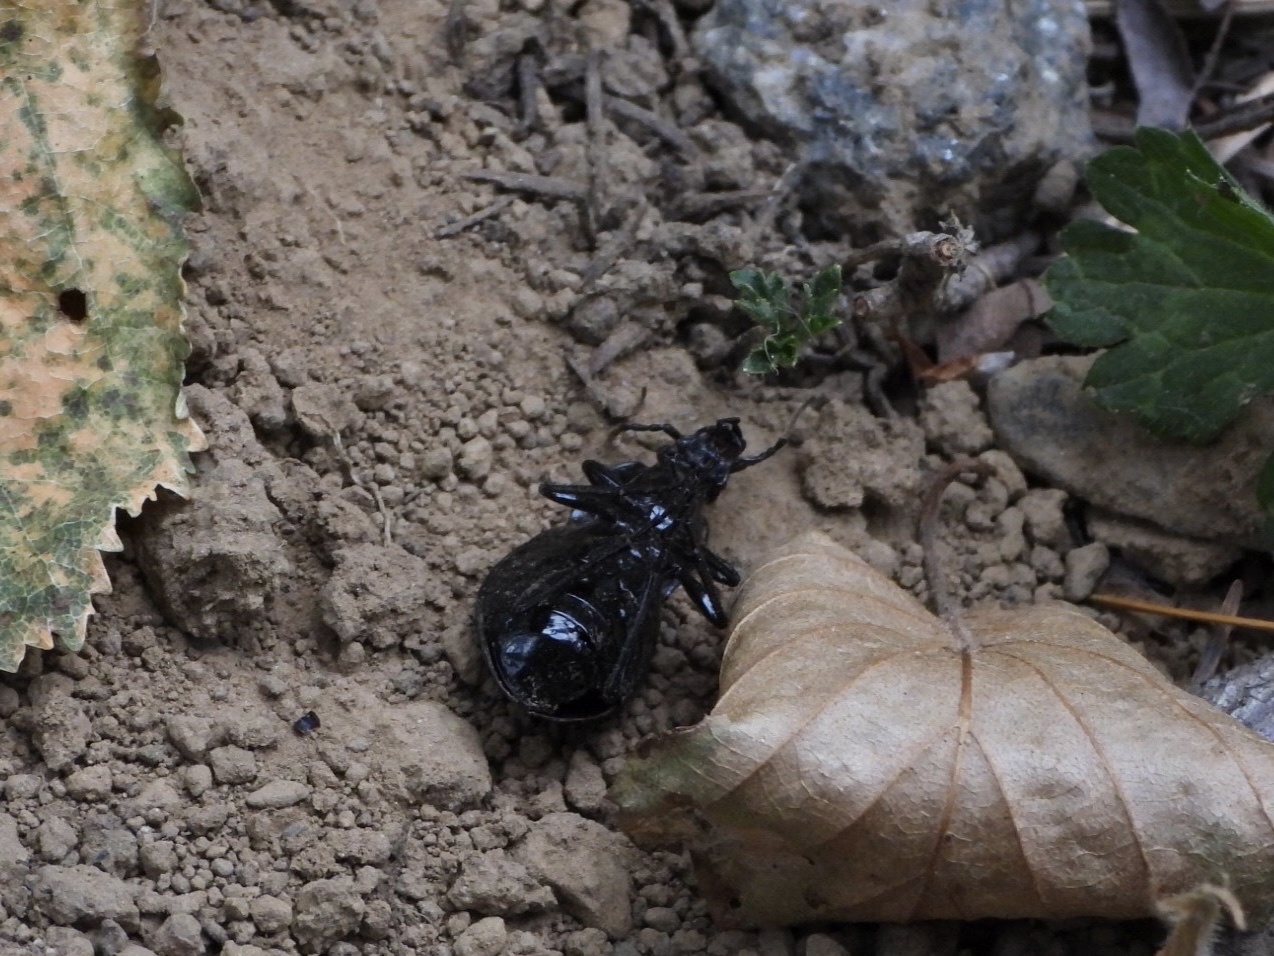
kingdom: Animalia
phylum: Arthropoda
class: Insecta
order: Coleoptera
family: Carabidae
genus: Carabus
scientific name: Carabus nemoralis
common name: European ground beetle
